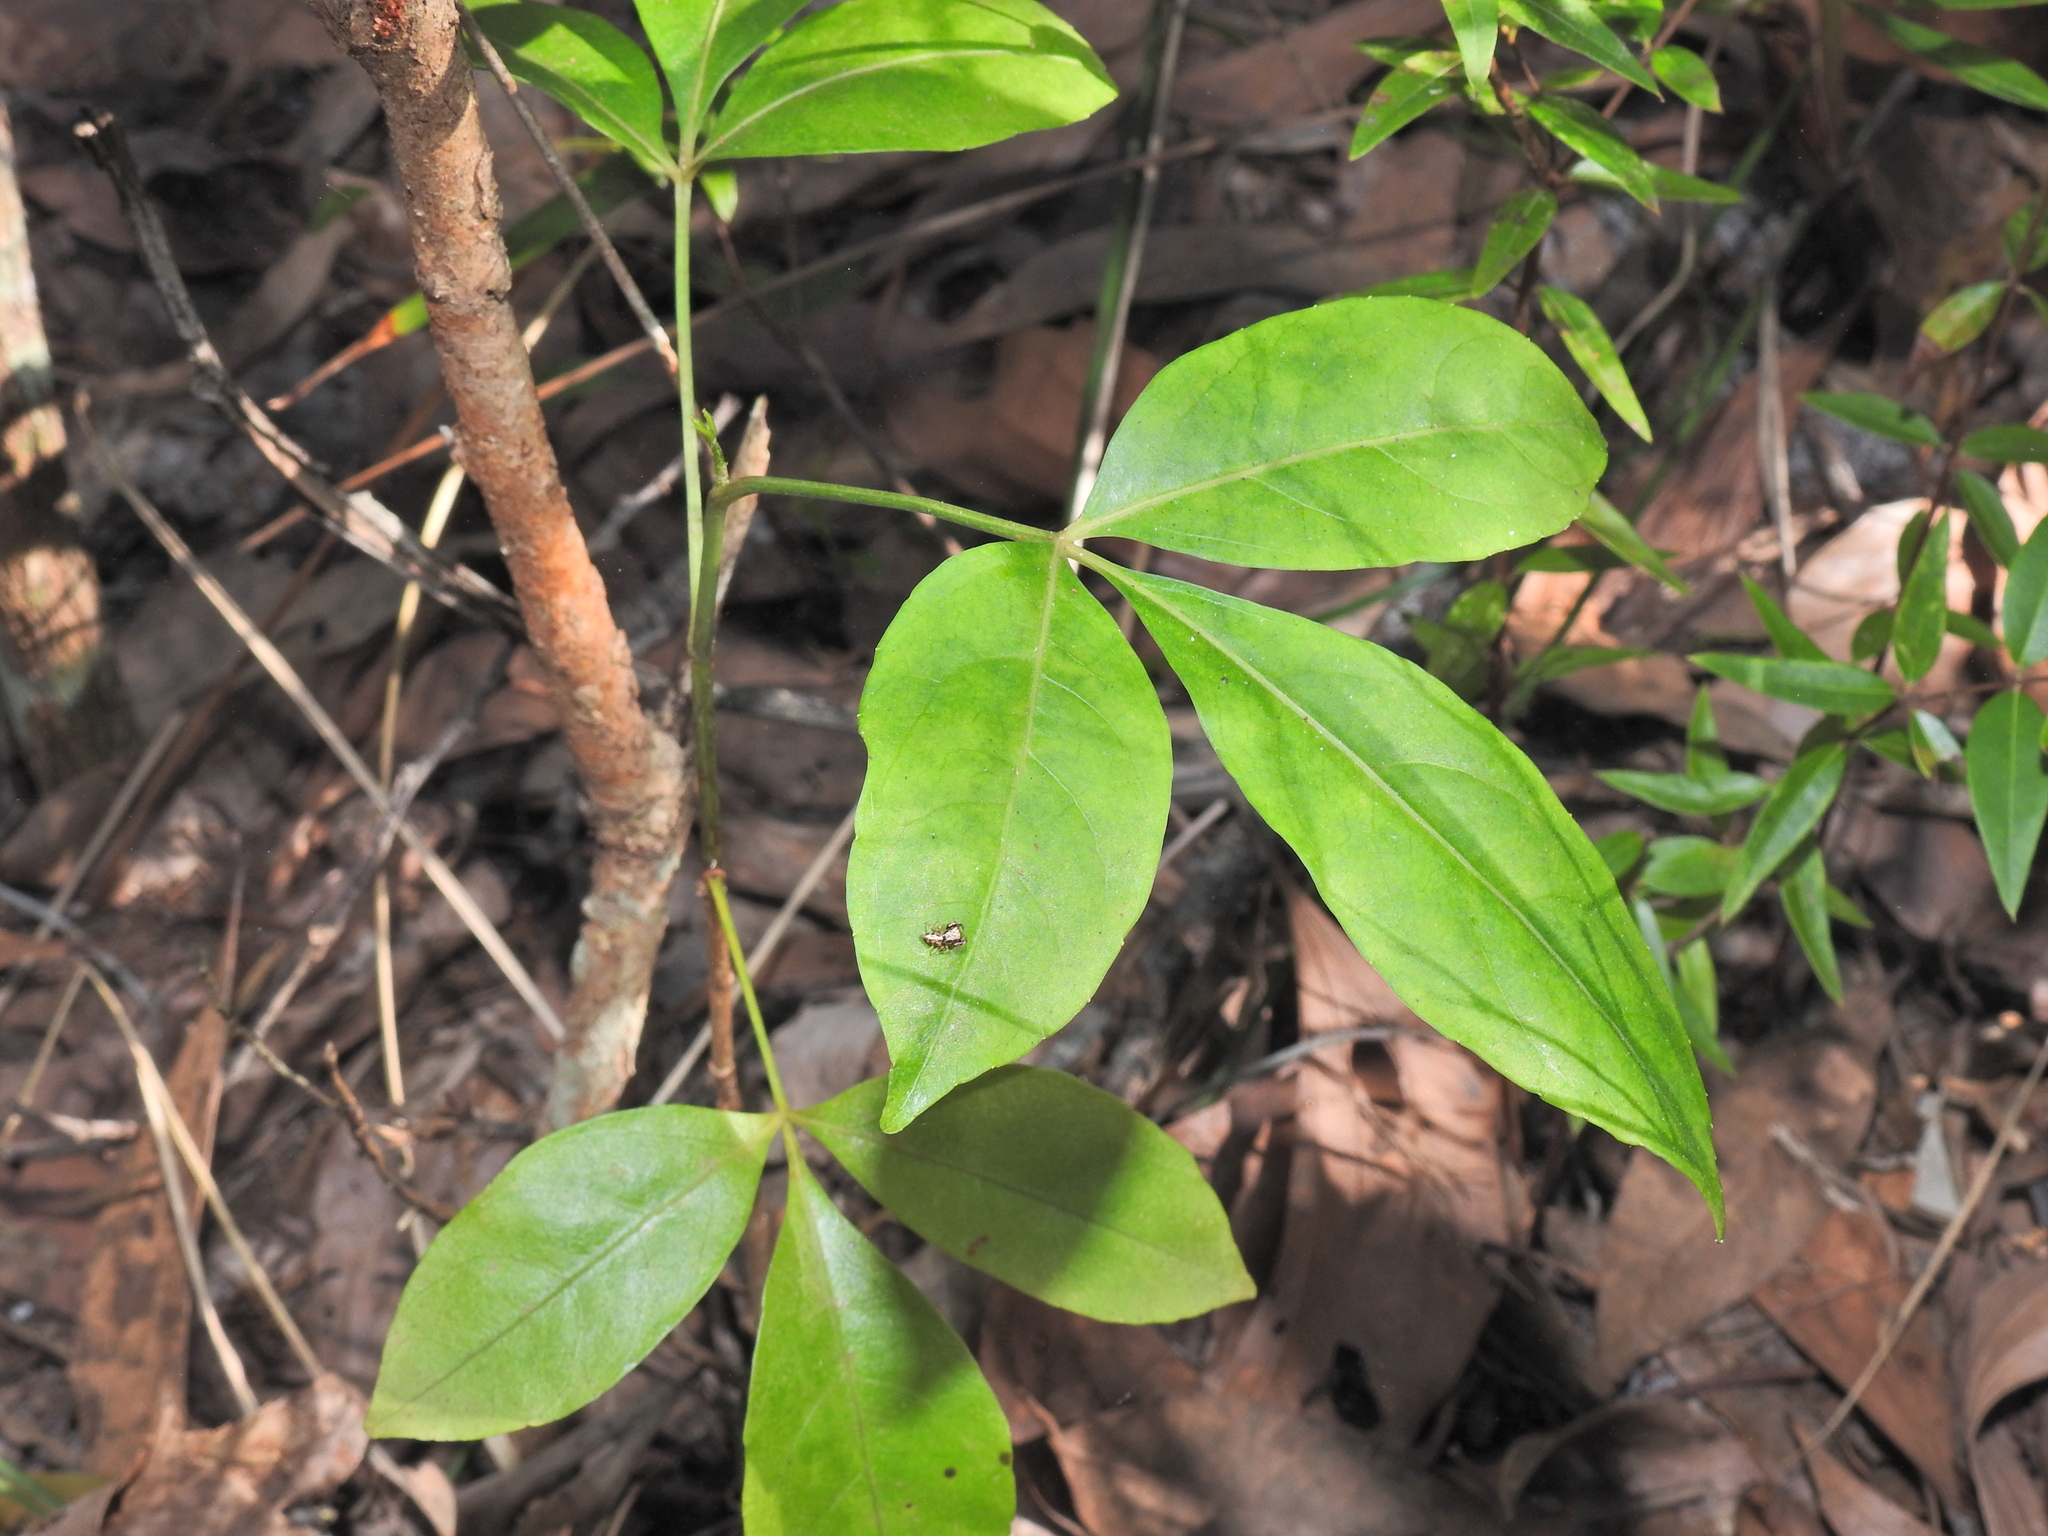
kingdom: Plantae
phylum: Tracheophyta
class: Magnoliopsida
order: Apiales
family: Araliaceae
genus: Polyscias
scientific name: Polyscias elegans
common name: Mowbulan whitewood
